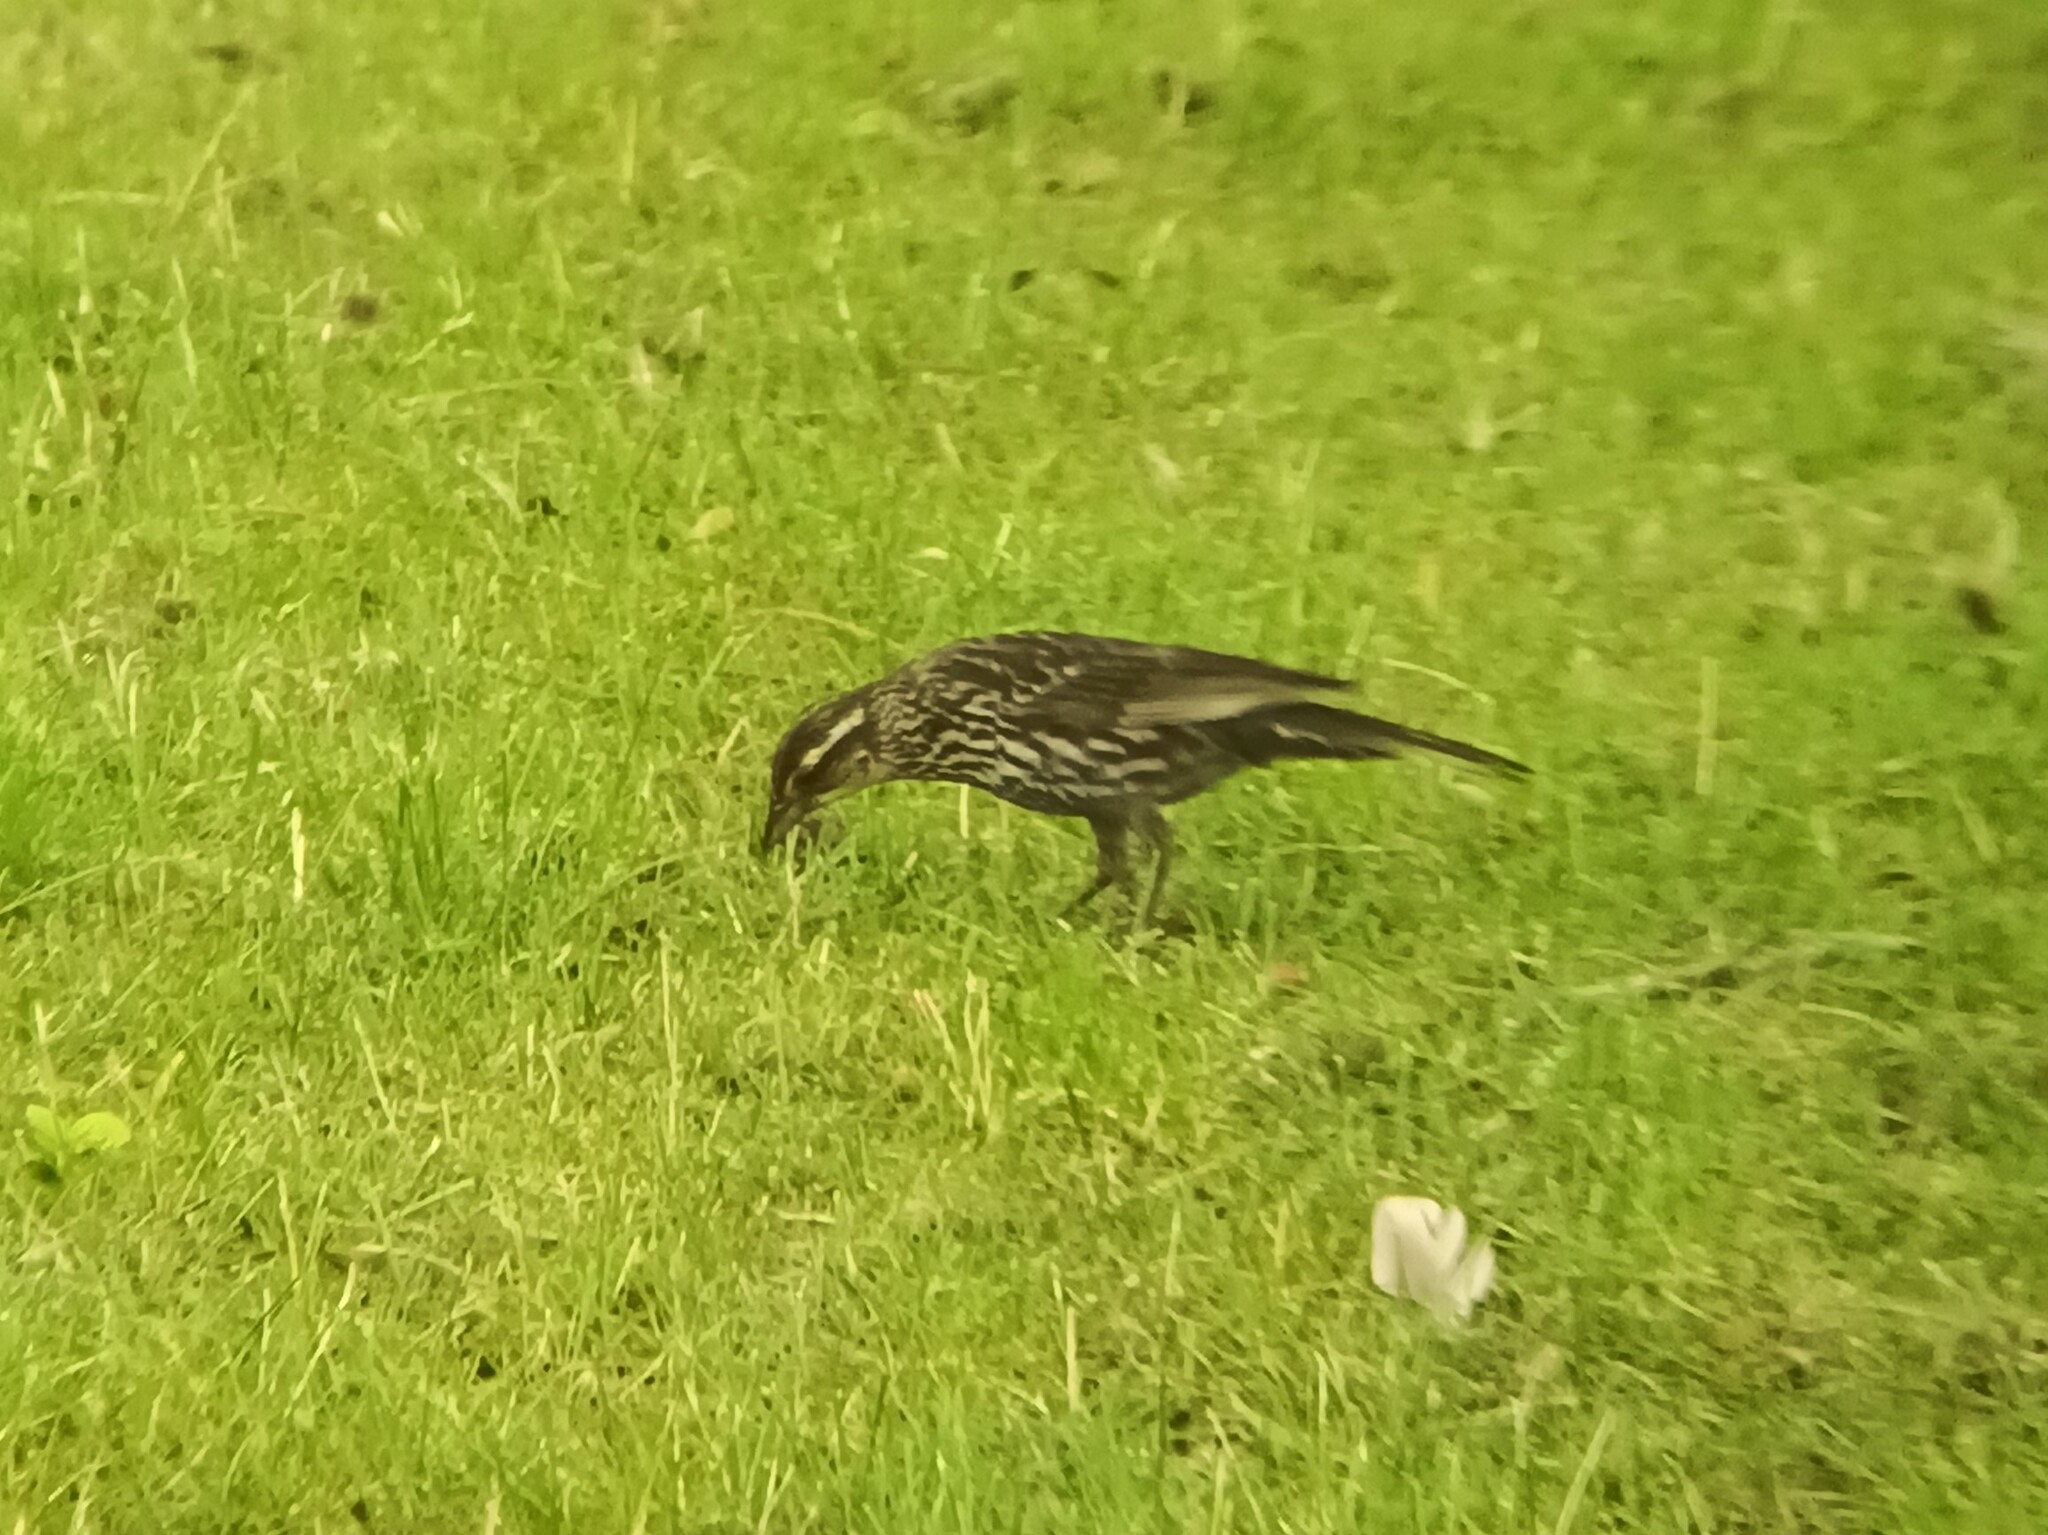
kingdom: Animalia
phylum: Chordata
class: Aves
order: Passeriformes
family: Icteridae
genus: Agelaius
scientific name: Agelaius phoeniceus
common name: Red-winged blackbird
